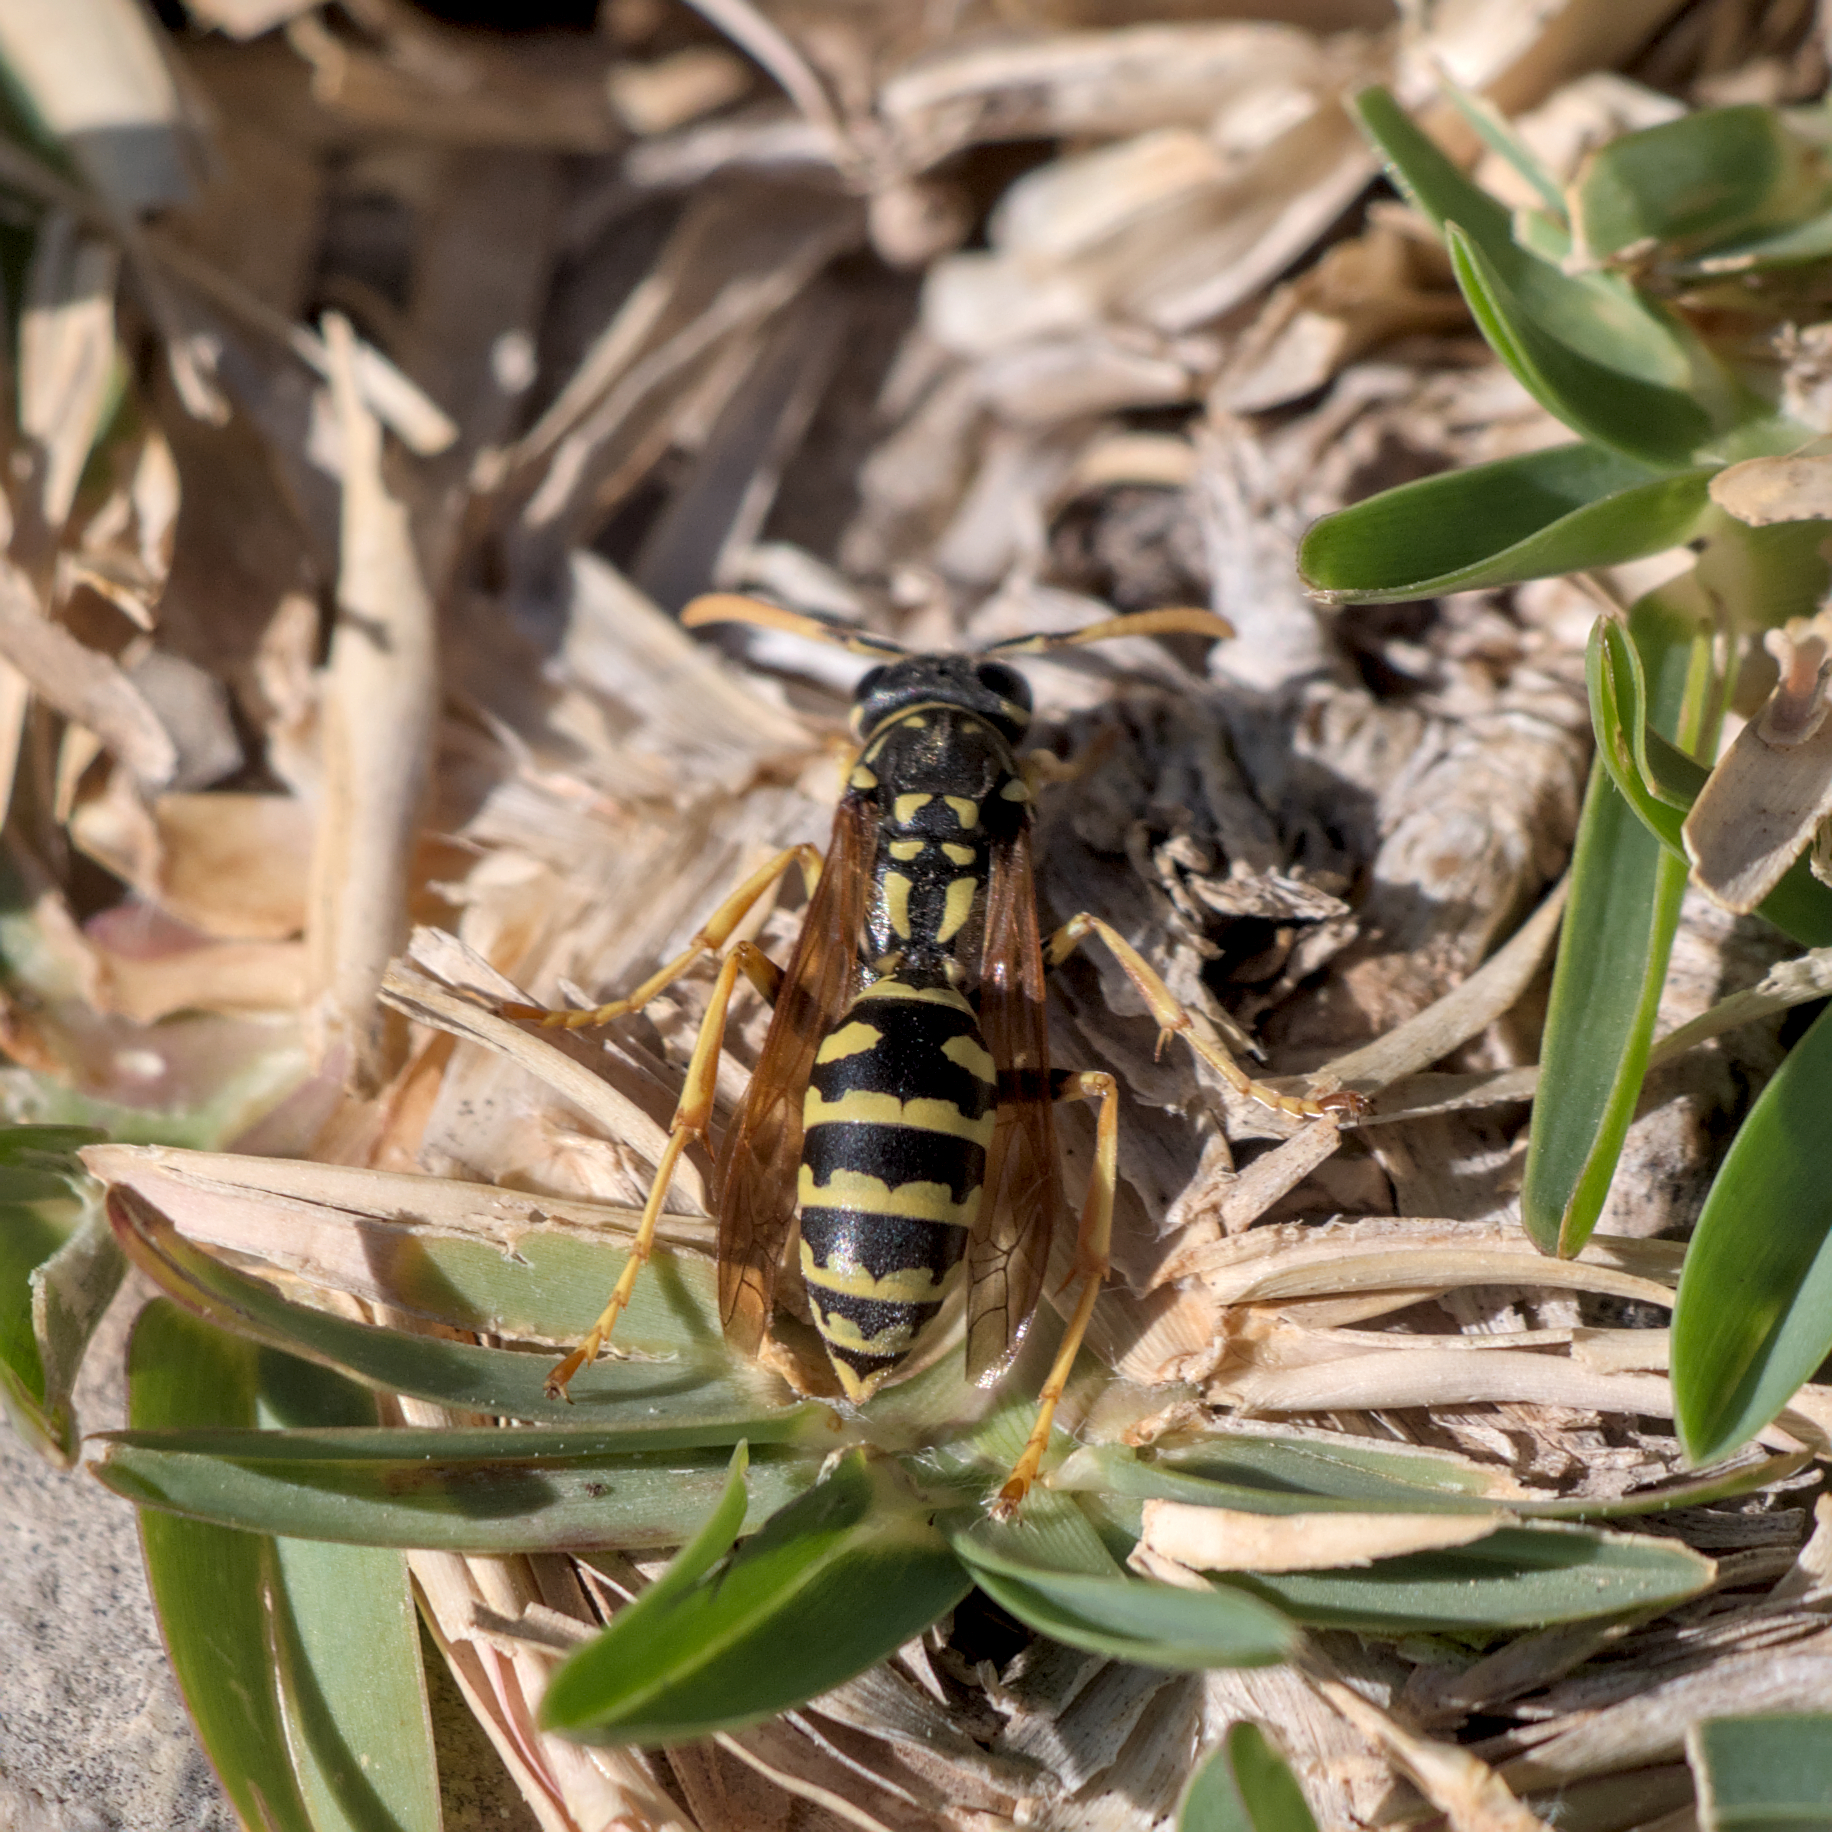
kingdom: Animalia
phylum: Arthropoda
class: Insecta
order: Hymenoptera
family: Eumenidae
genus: Polistes
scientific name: Polistes dominula
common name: Paper wasp
